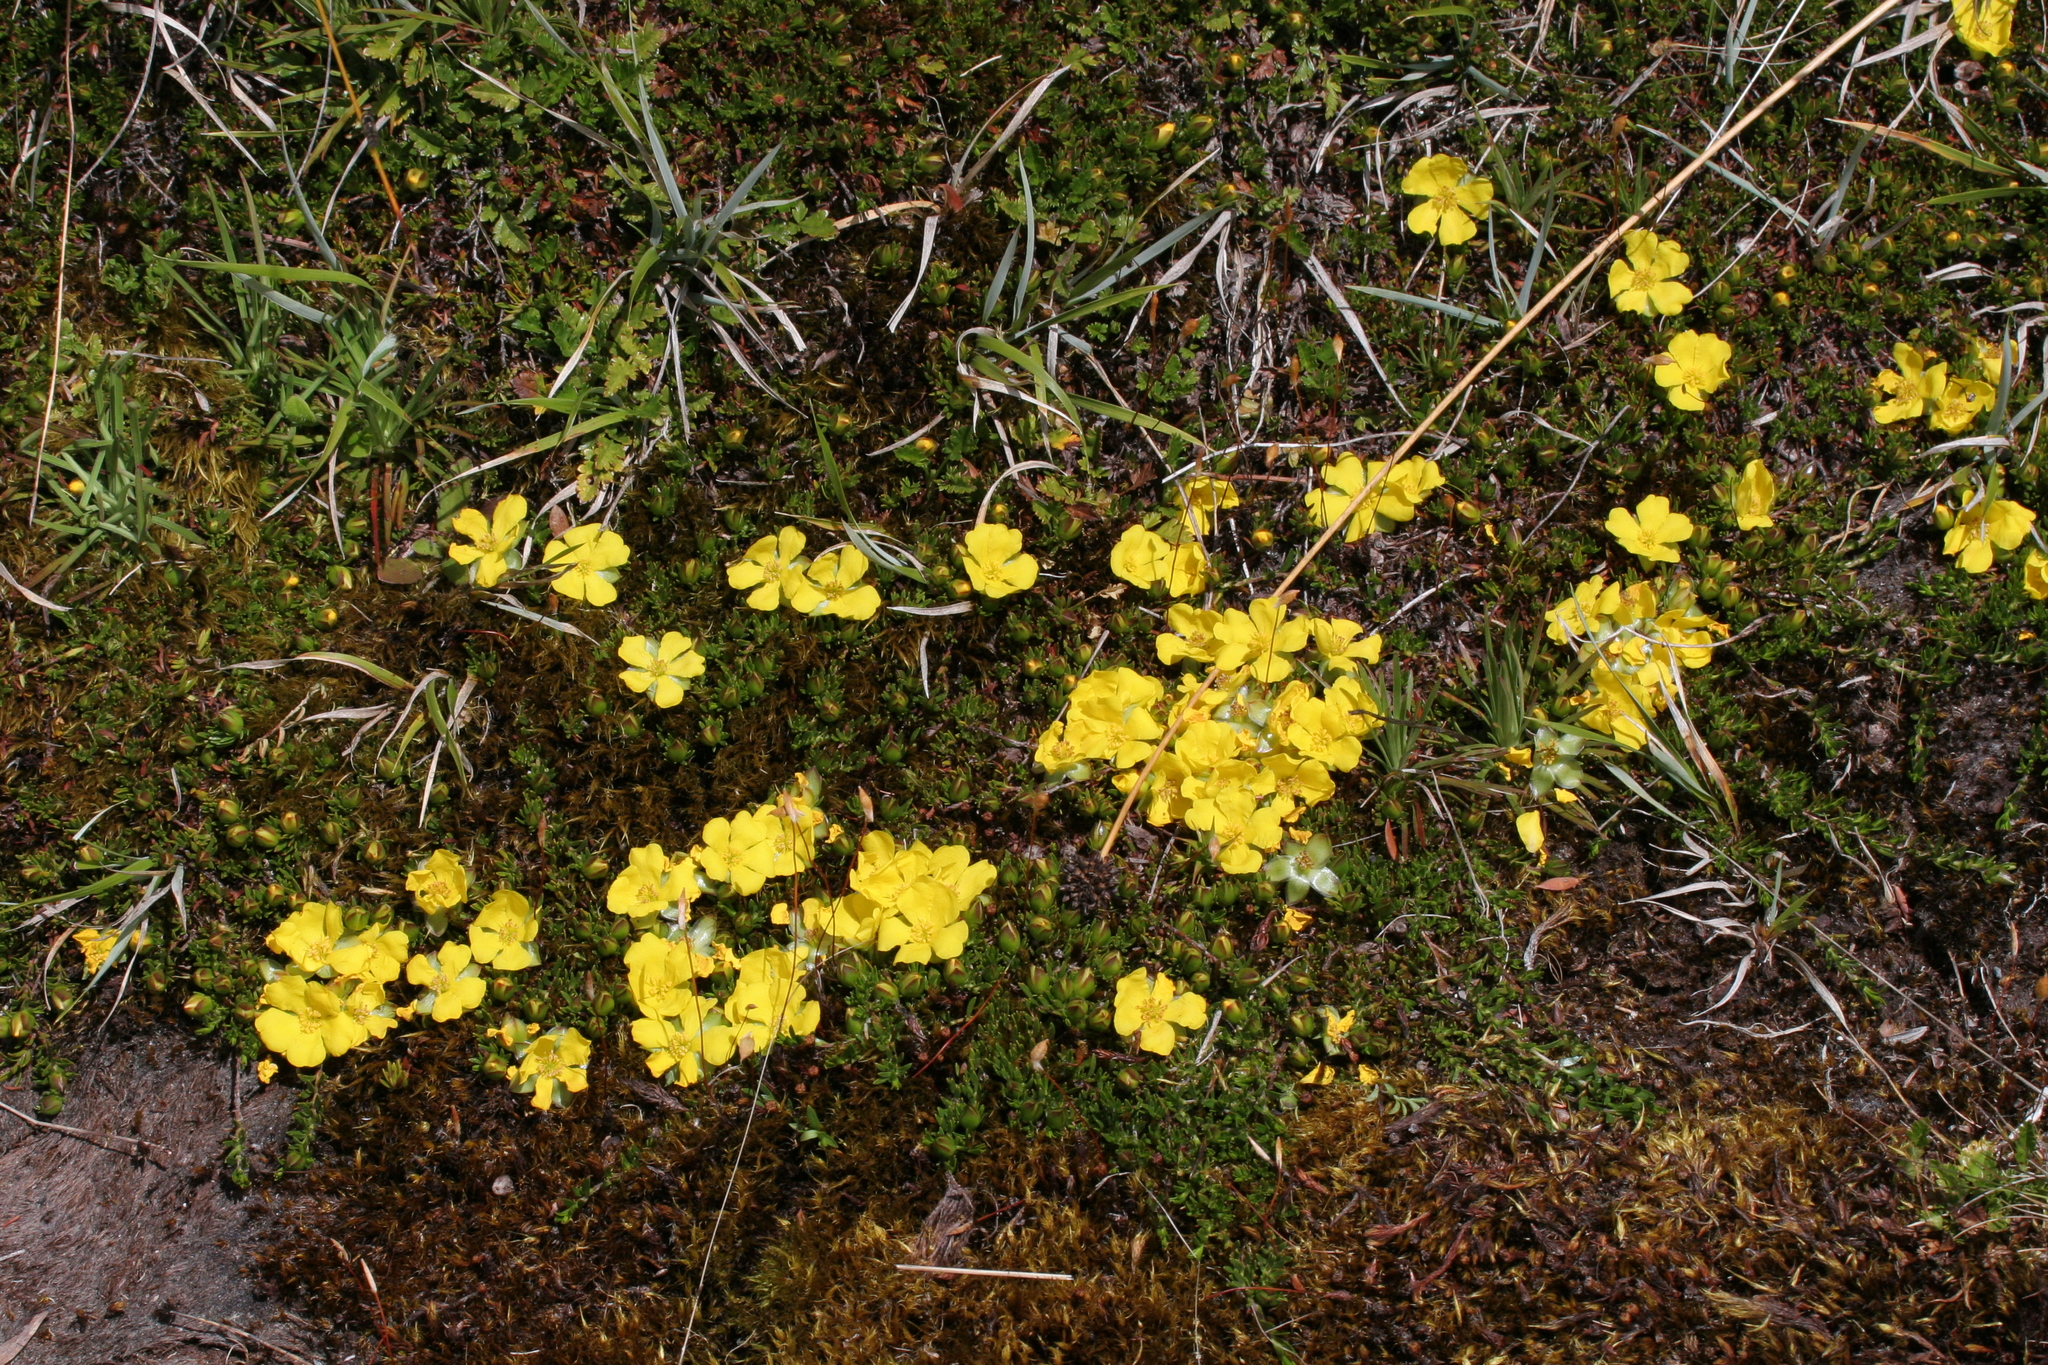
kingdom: Plantae
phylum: Tracheophyta
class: Magnoliopsida
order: Dilleniales
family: Dilleniaceae
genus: Hibbertia
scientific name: Hibbertia procumbens
